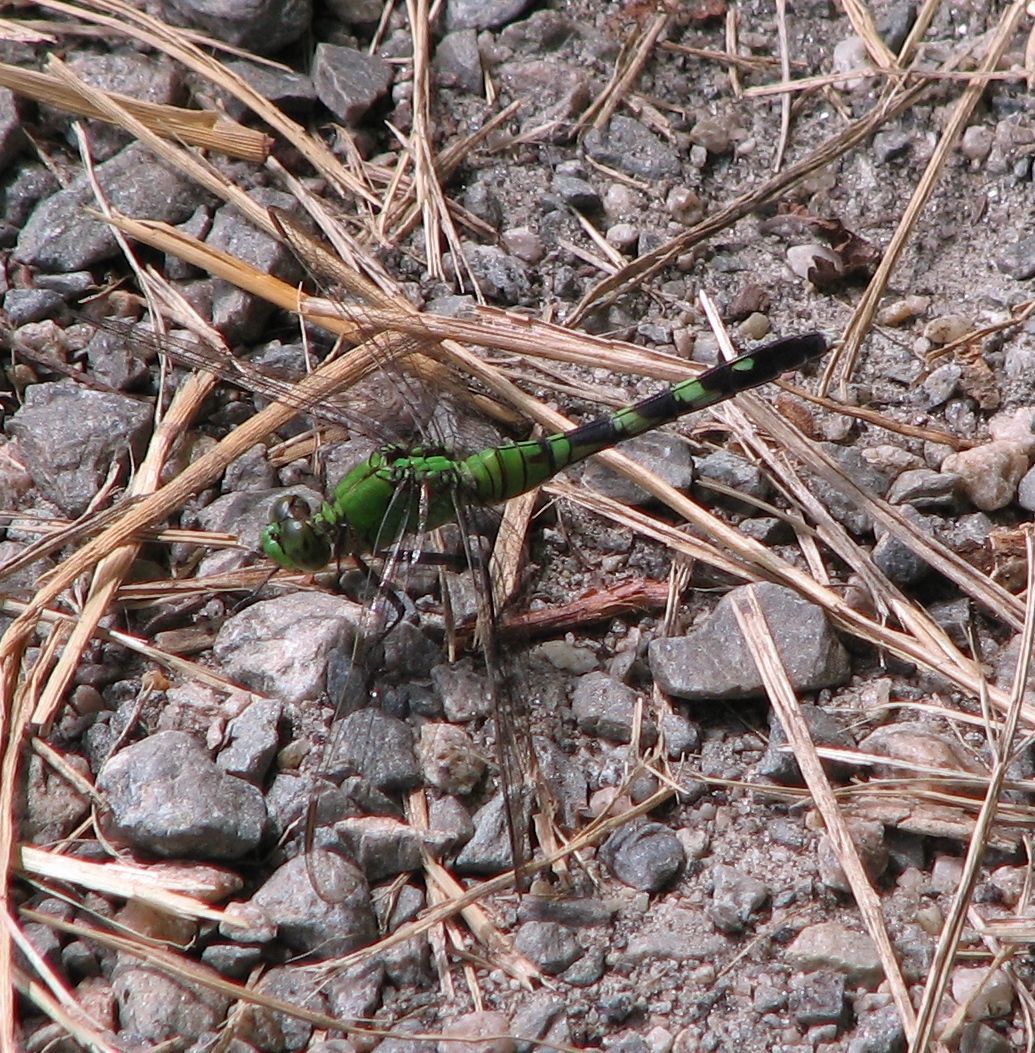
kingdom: Animalia
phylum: Arthropoda
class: Insecta
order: Odonata
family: Libellulidae
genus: Erythemis
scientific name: Erythemis simplicicollis
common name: Eastern pondhawk
